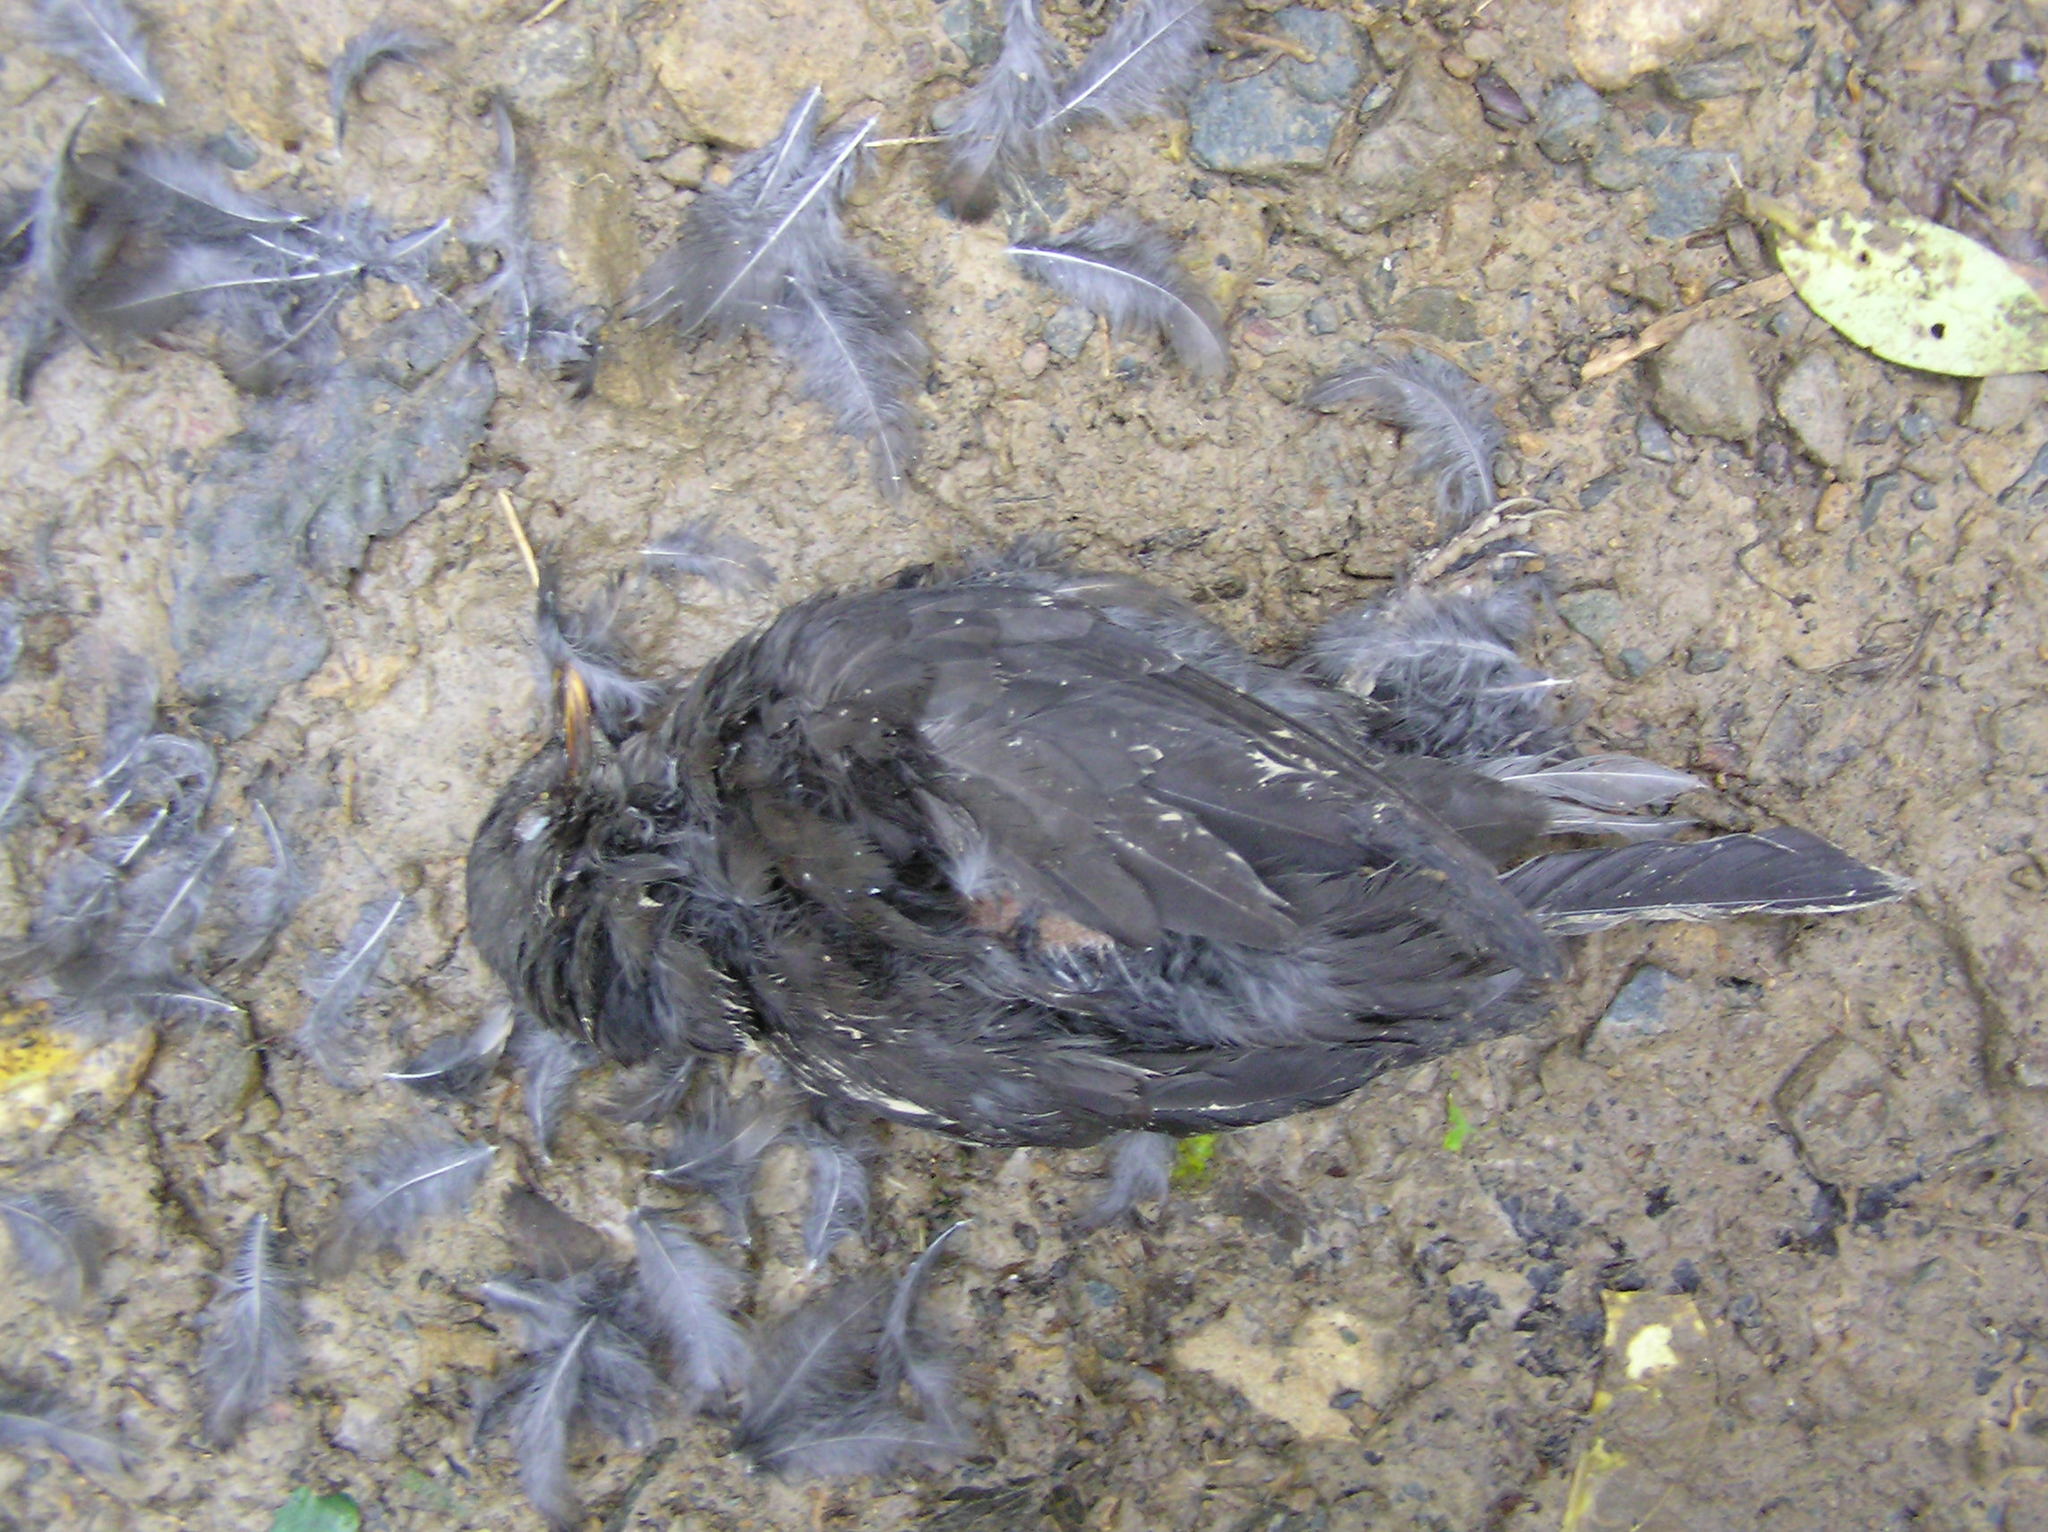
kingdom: Animalia
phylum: Chordata
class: Aves
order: Falconiformes
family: Falconidae
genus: Falco
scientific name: Falco novaeseelandiae
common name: New zealand falcon
